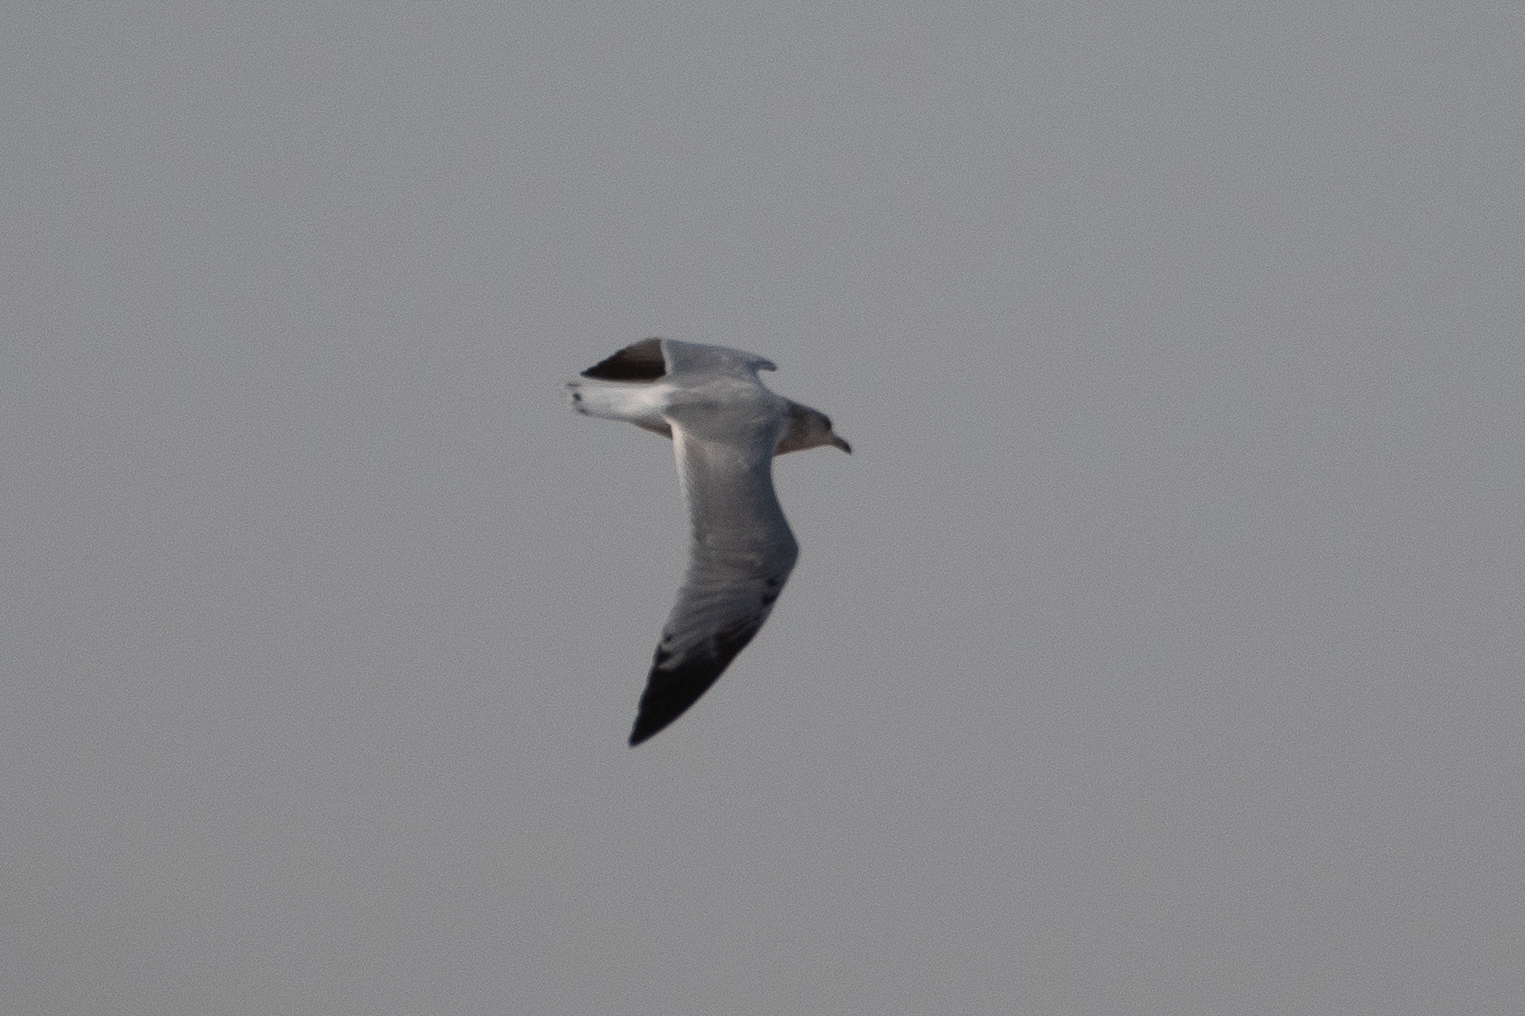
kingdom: Animalia
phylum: Chordata
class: Aves
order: Charadriiformes
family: Laridae
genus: Larus
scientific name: Larus californicus
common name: California gull
